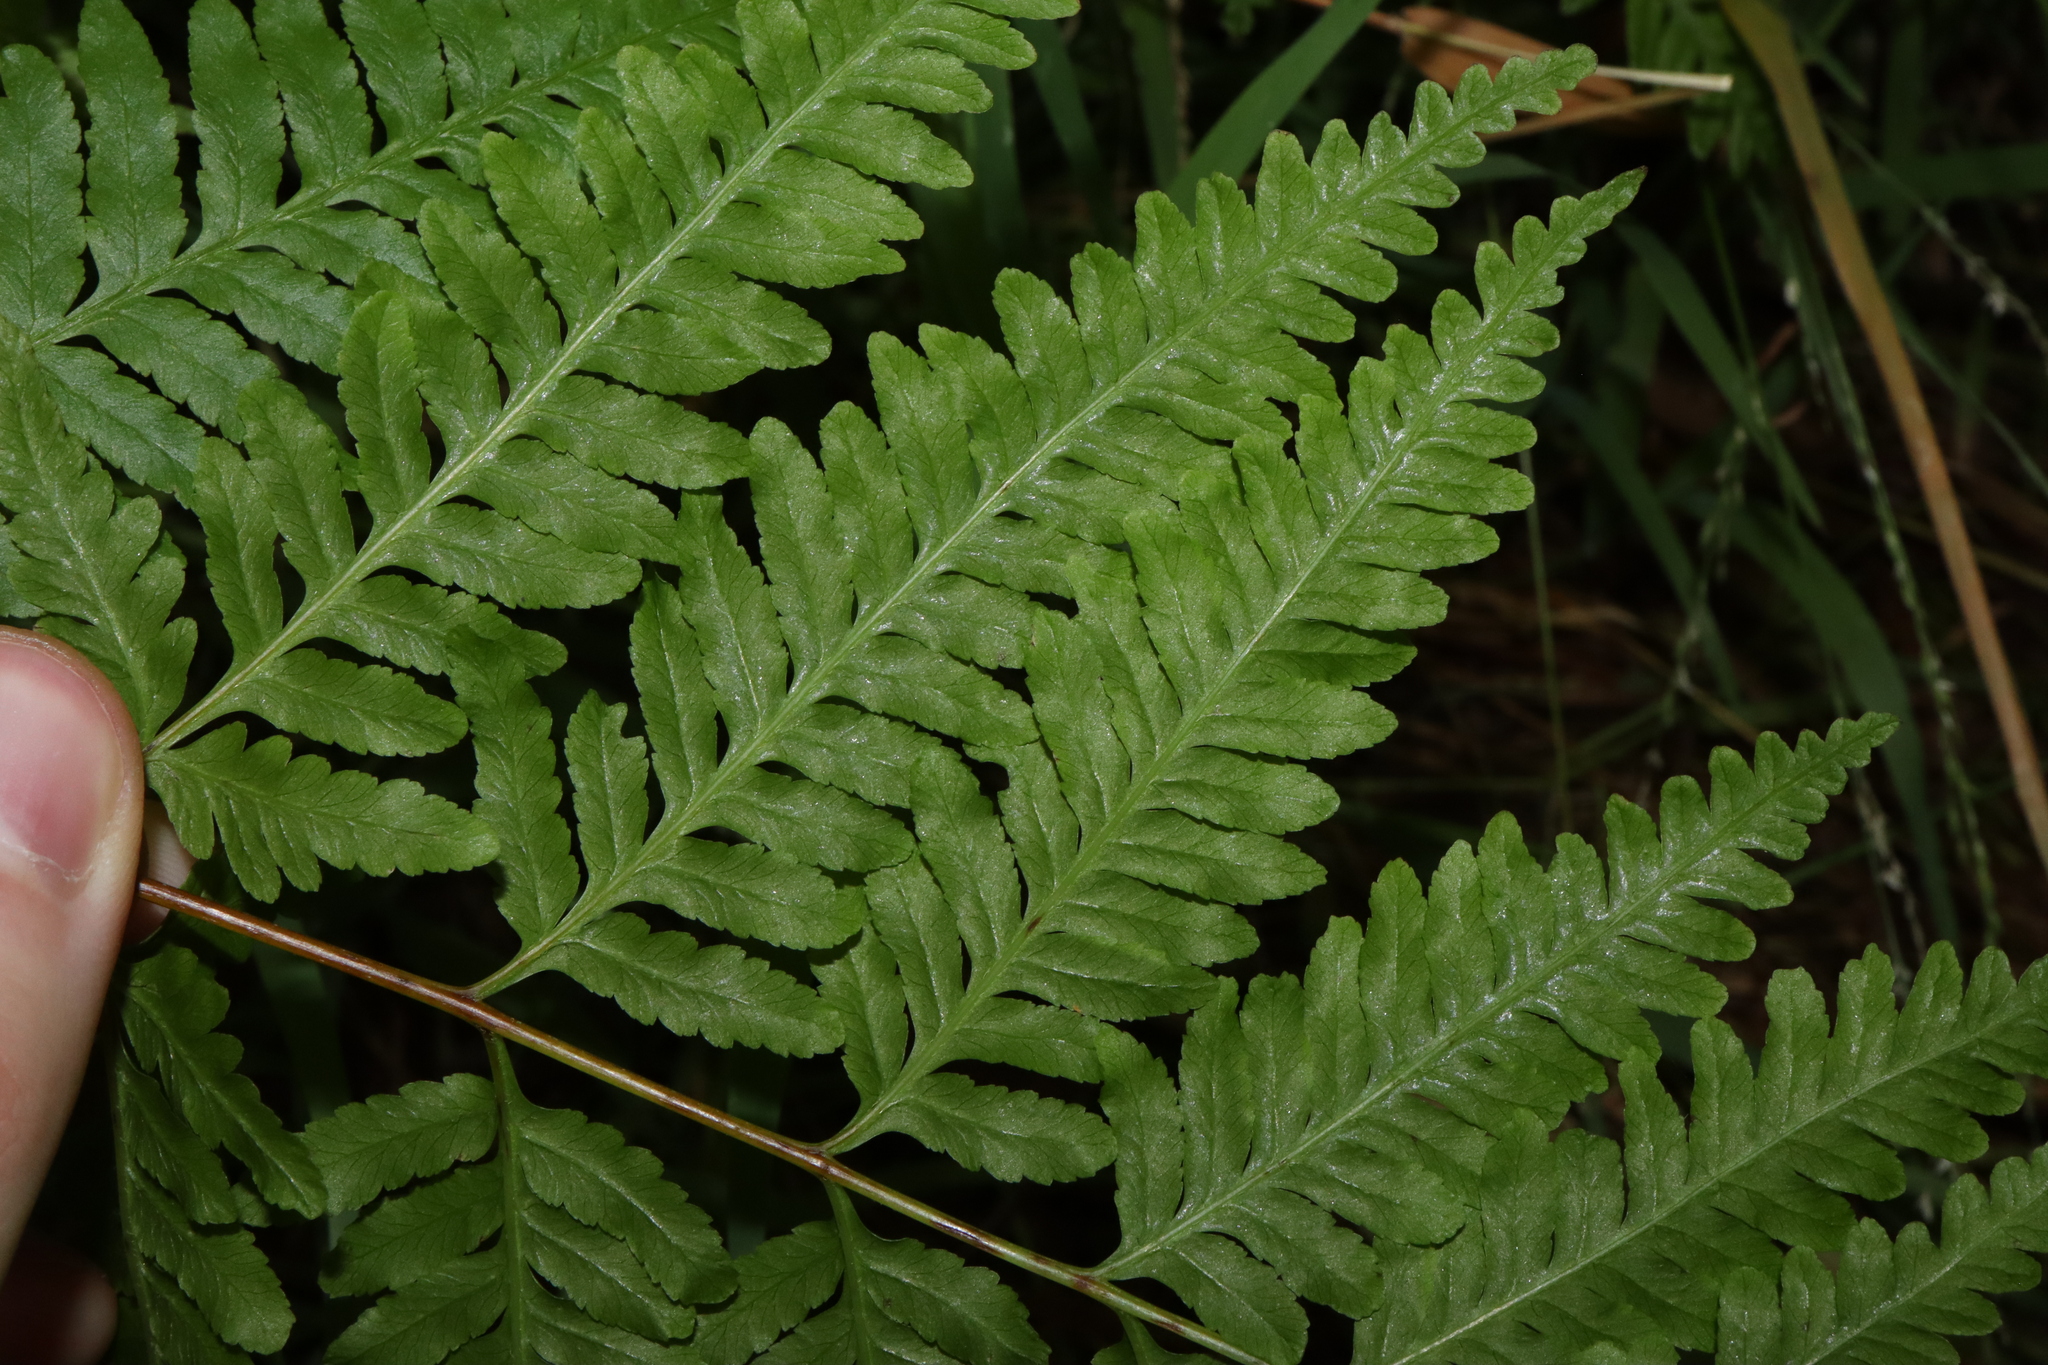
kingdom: Plantae
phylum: Tracheophyta
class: Polypodiopsida
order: Polypodiales
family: Pteridaceae
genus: Pteris
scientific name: Pteris tremula
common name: Australian brake
